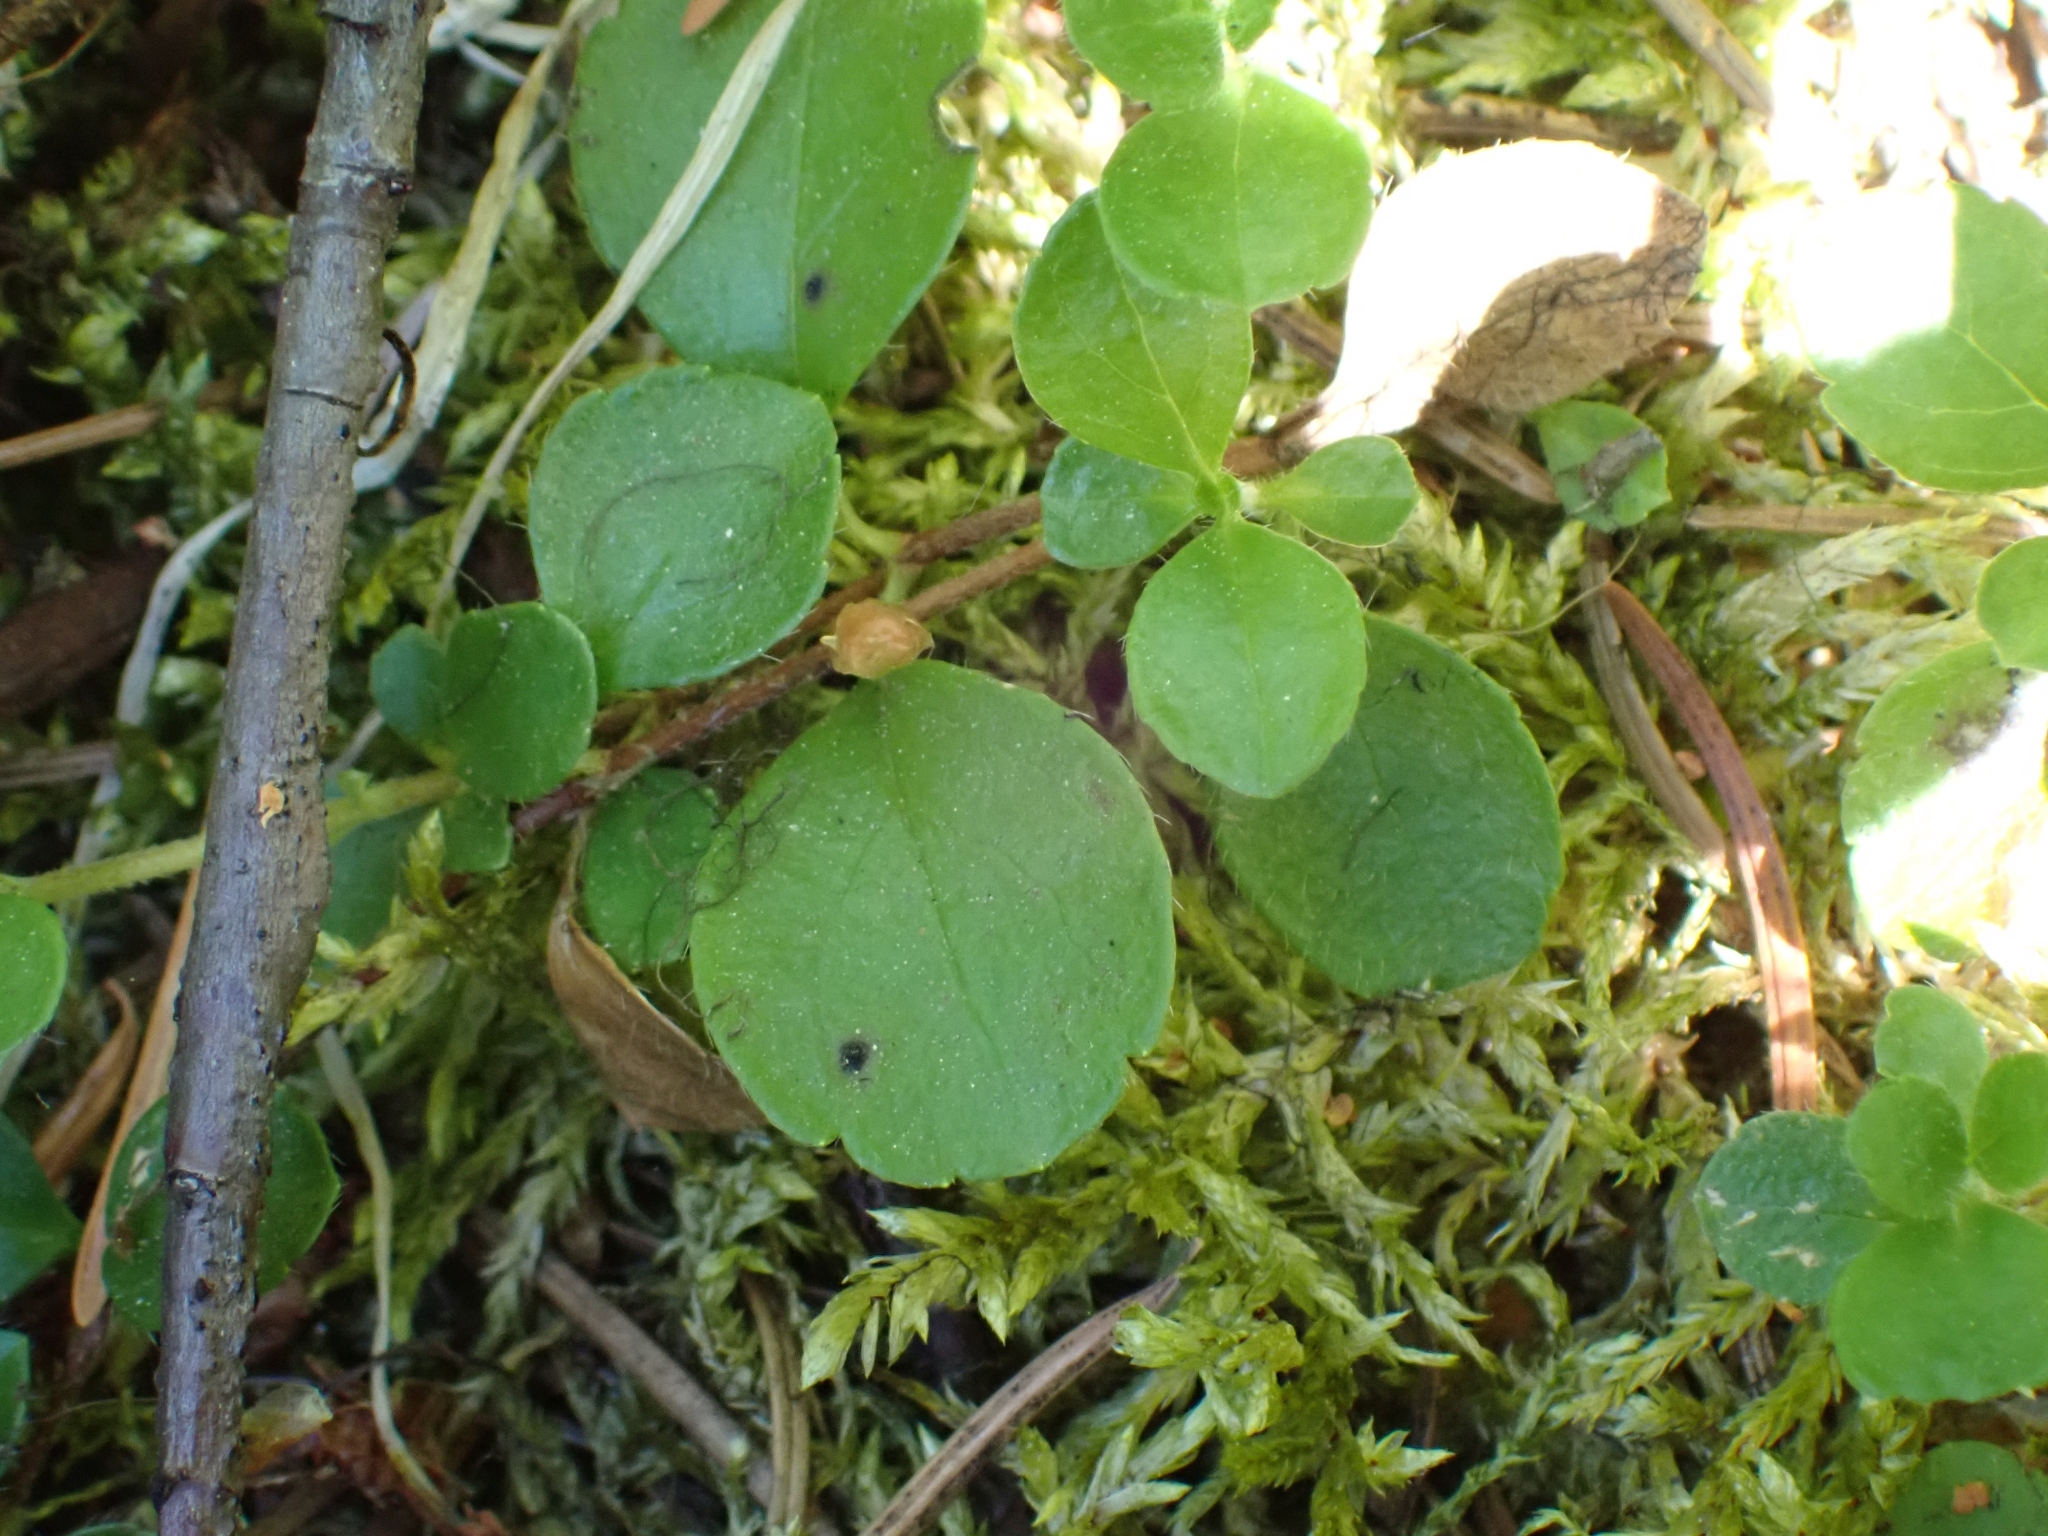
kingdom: Plantae
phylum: Tracheophyta
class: Magnoliopsida
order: Dipsacales
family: Caprifoliaceae
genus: Linnaea
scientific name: Linnaea borealis
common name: Twinflower
